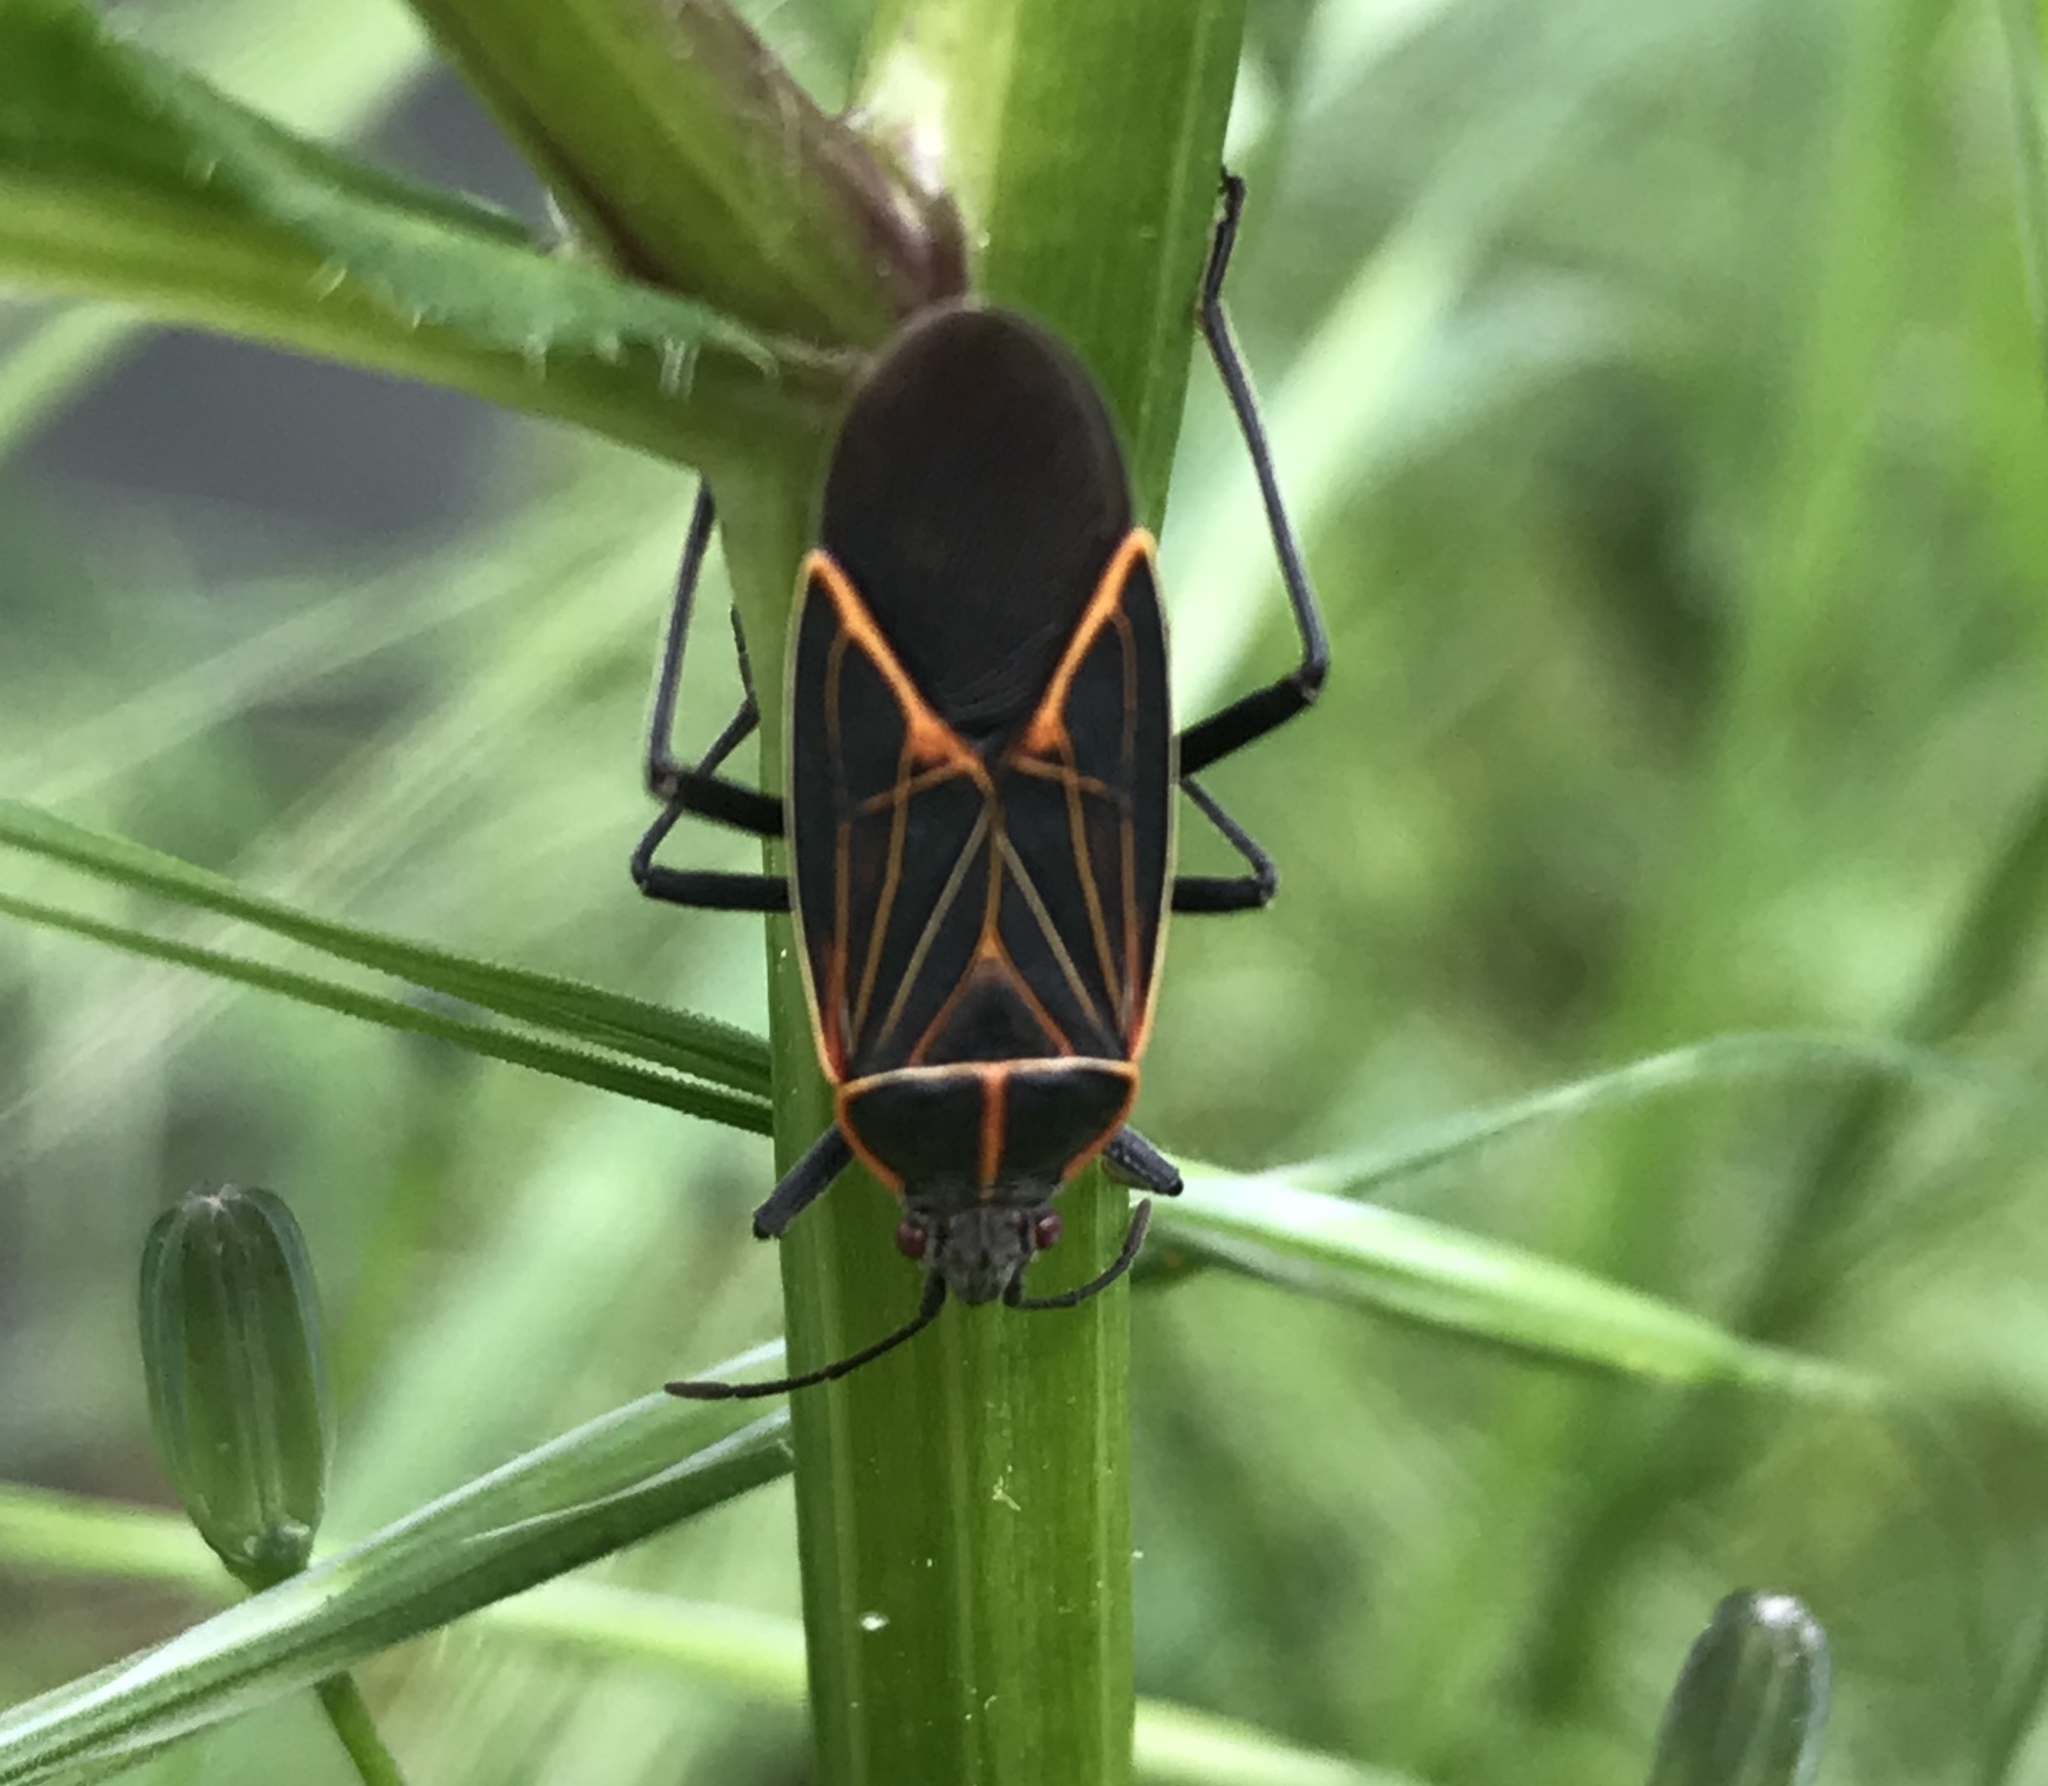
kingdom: Animalia
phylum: Arthropoda
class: Insecta
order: Hemiptera
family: Rhopalidae
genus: Boisea
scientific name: Boisea rubrolineata
